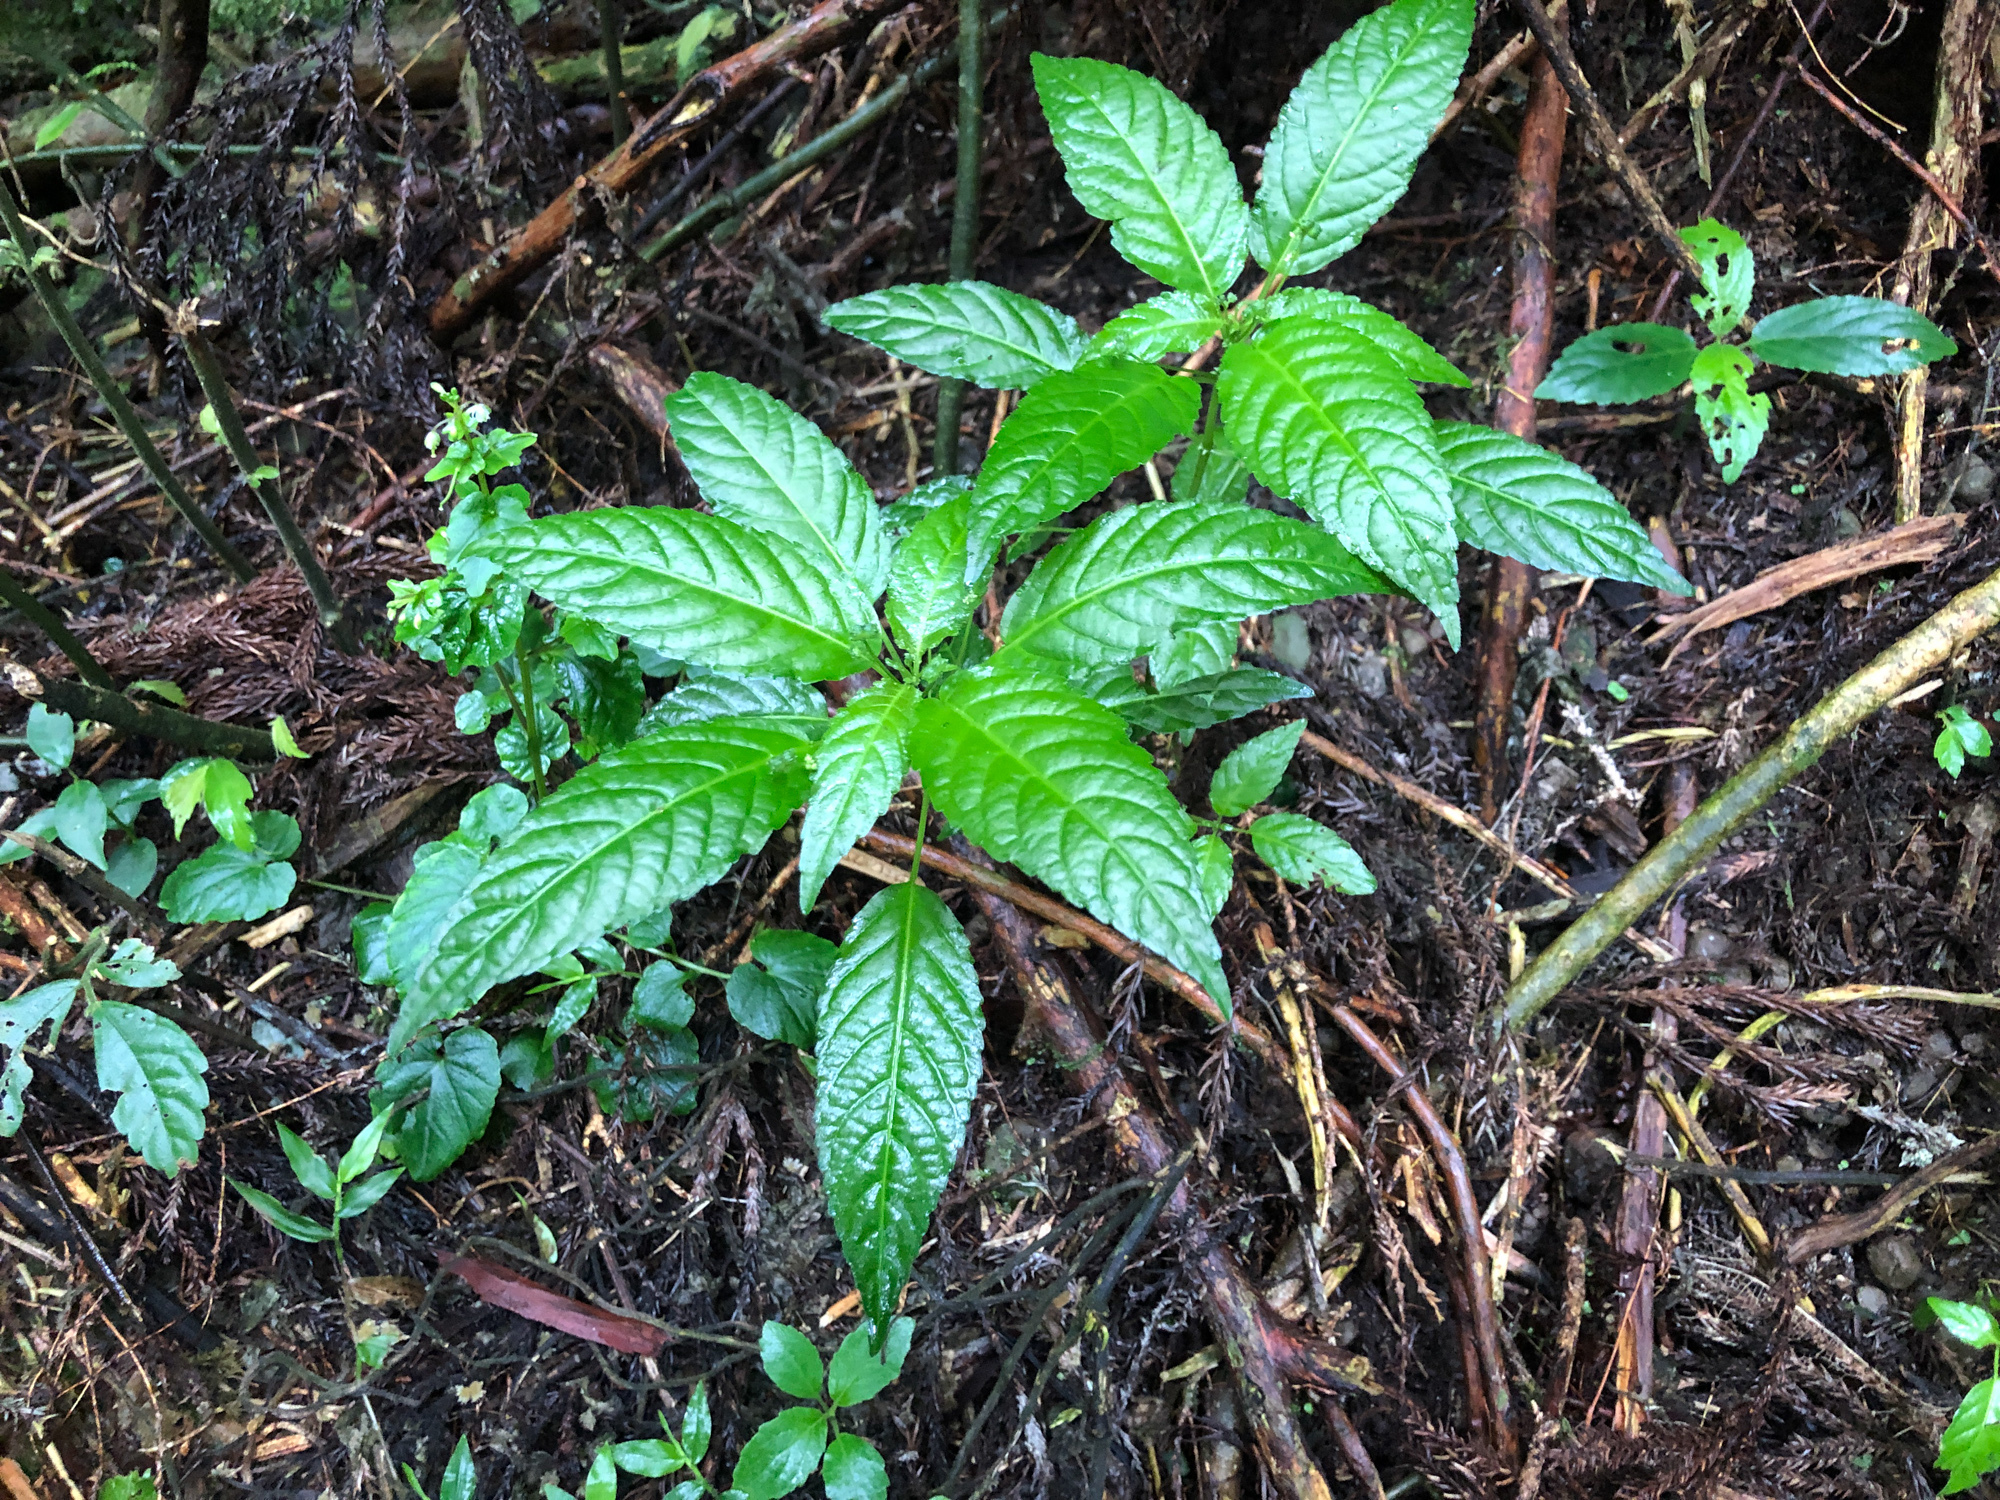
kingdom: Plantae
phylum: Tracheophyta
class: Magnoliopsida
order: Malpighiales
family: Euphorbiaceae
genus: Mercurialis
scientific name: Mercurialis leiocarpa
